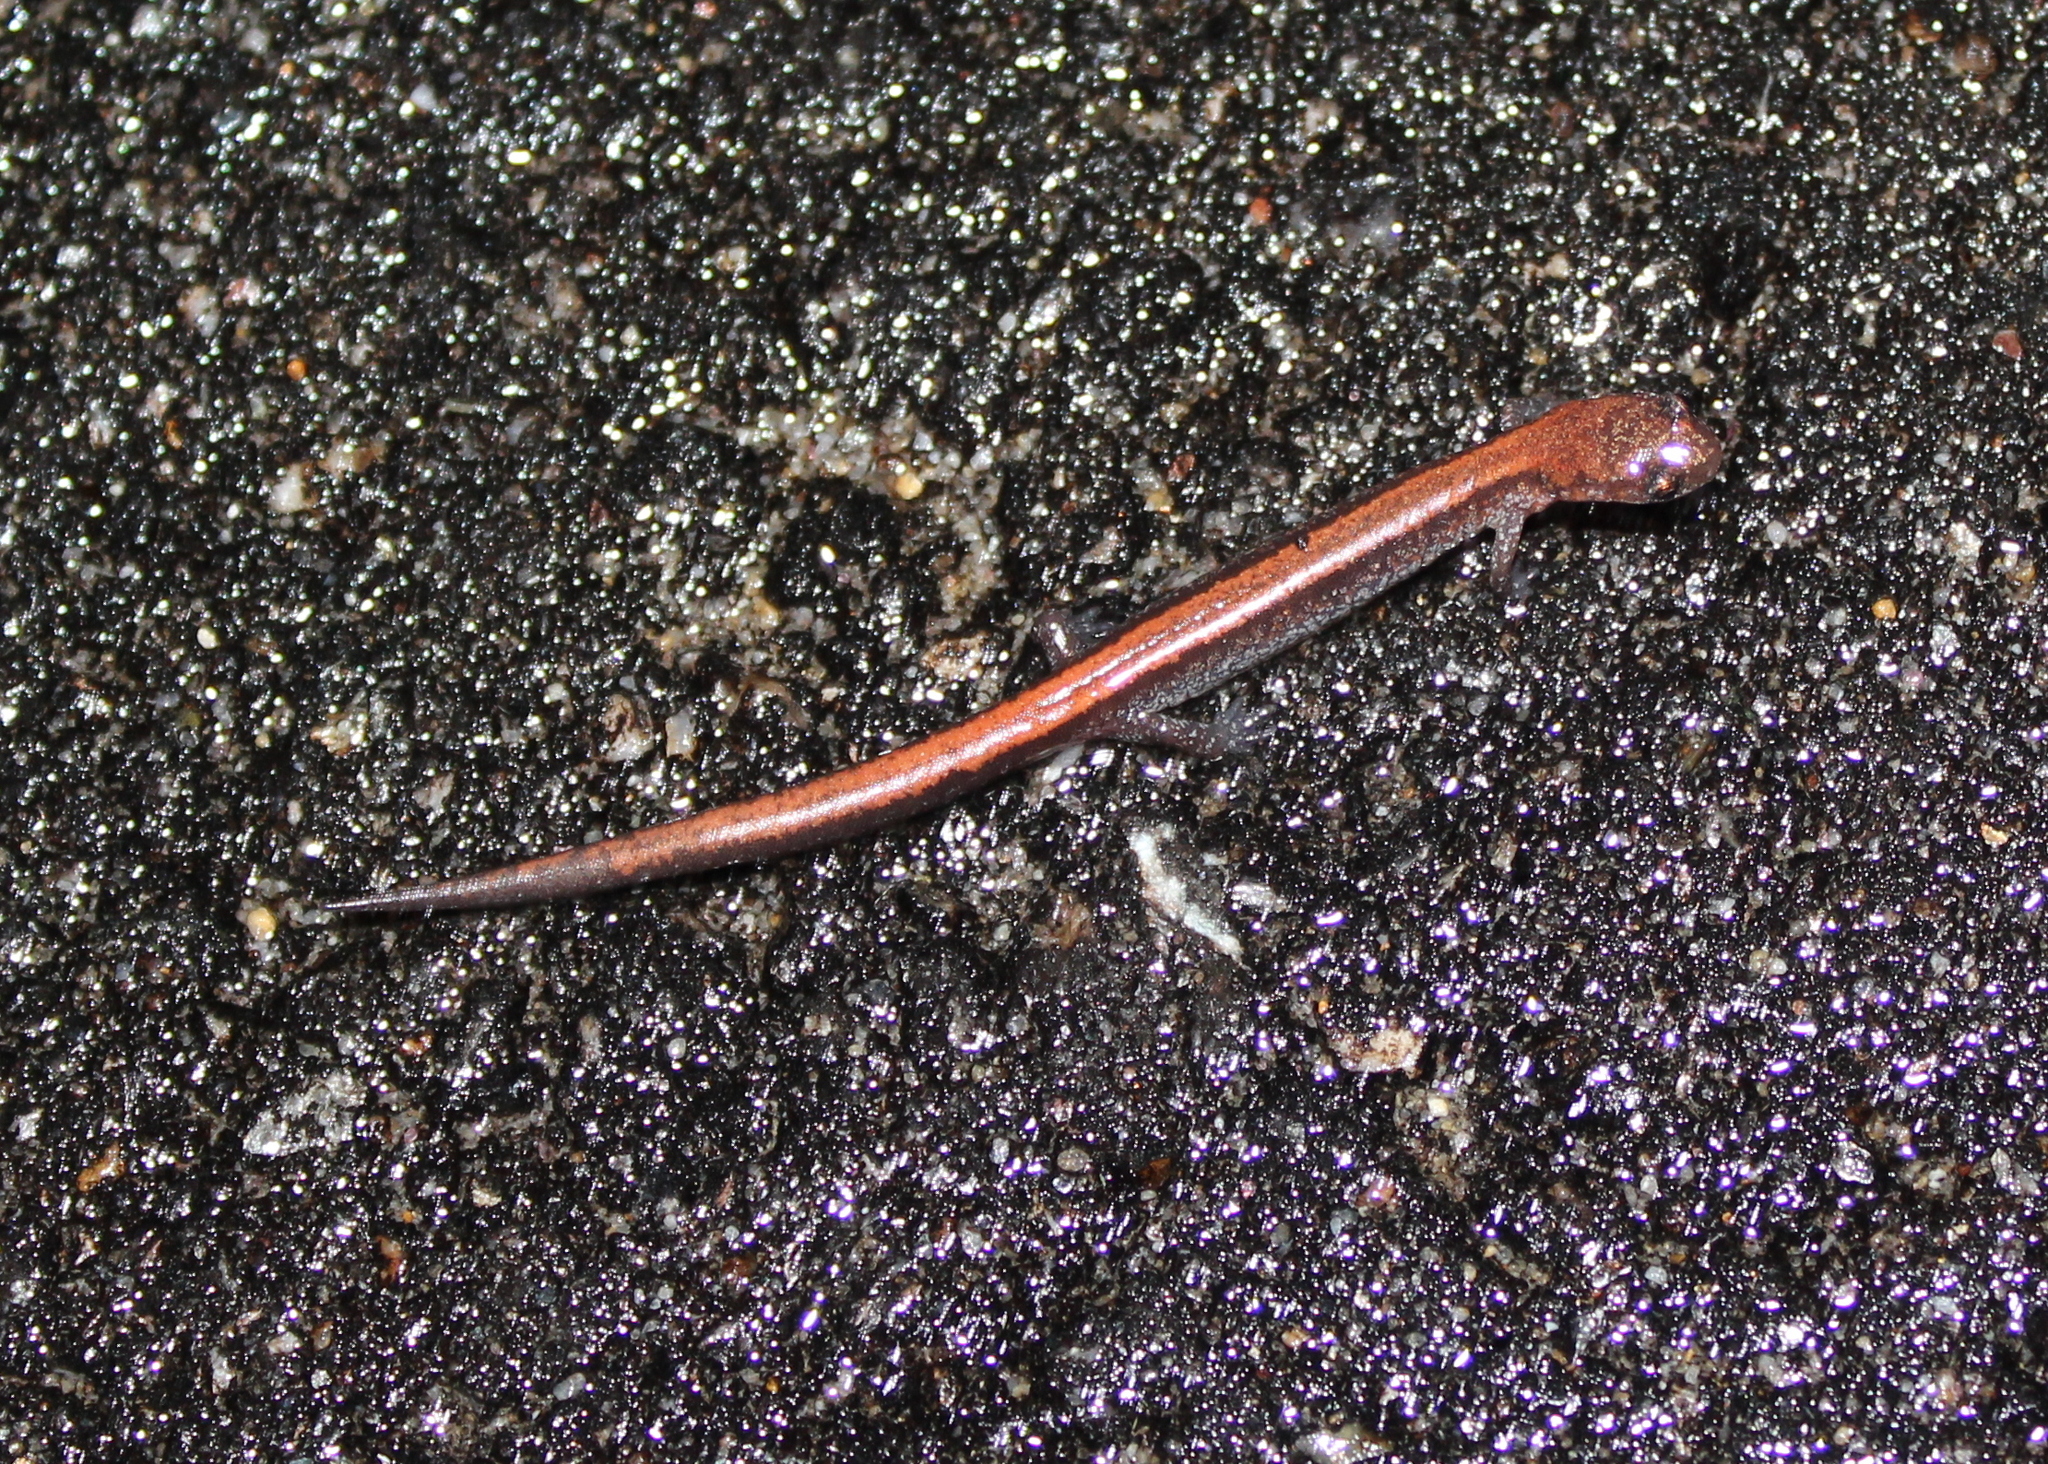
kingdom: Animalia
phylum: Chordata
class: Amphibia
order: Caudata
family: Plethodontidae
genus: Plethodon
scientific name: Plethodon cinereus
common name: Redback salamander
